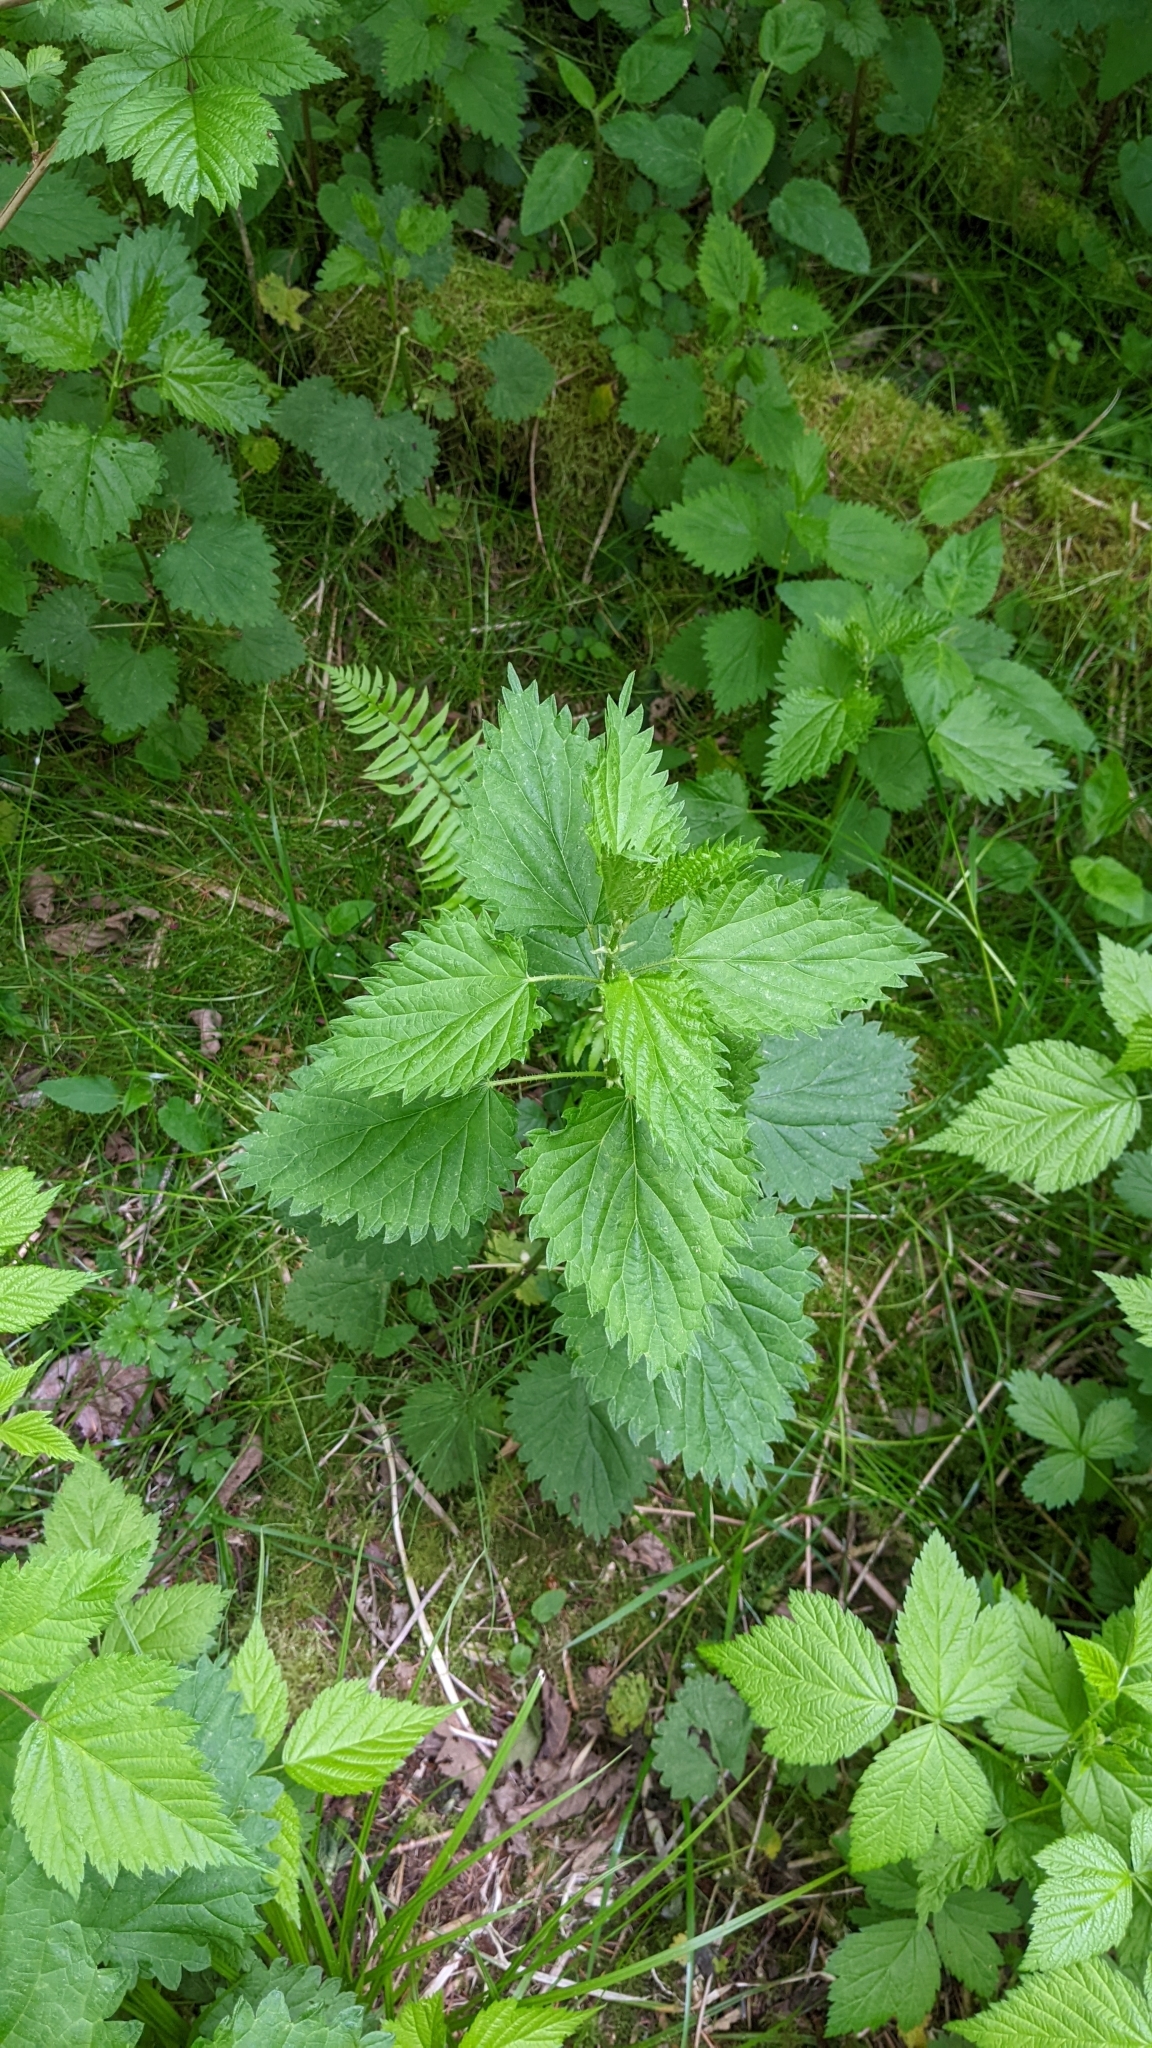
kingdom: Plantae
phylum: Tracheophyta
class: Magnoliopsida
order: Rosales
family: Urticaceae
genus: Urtica
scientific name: Urtica dioica
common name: Common nettle
